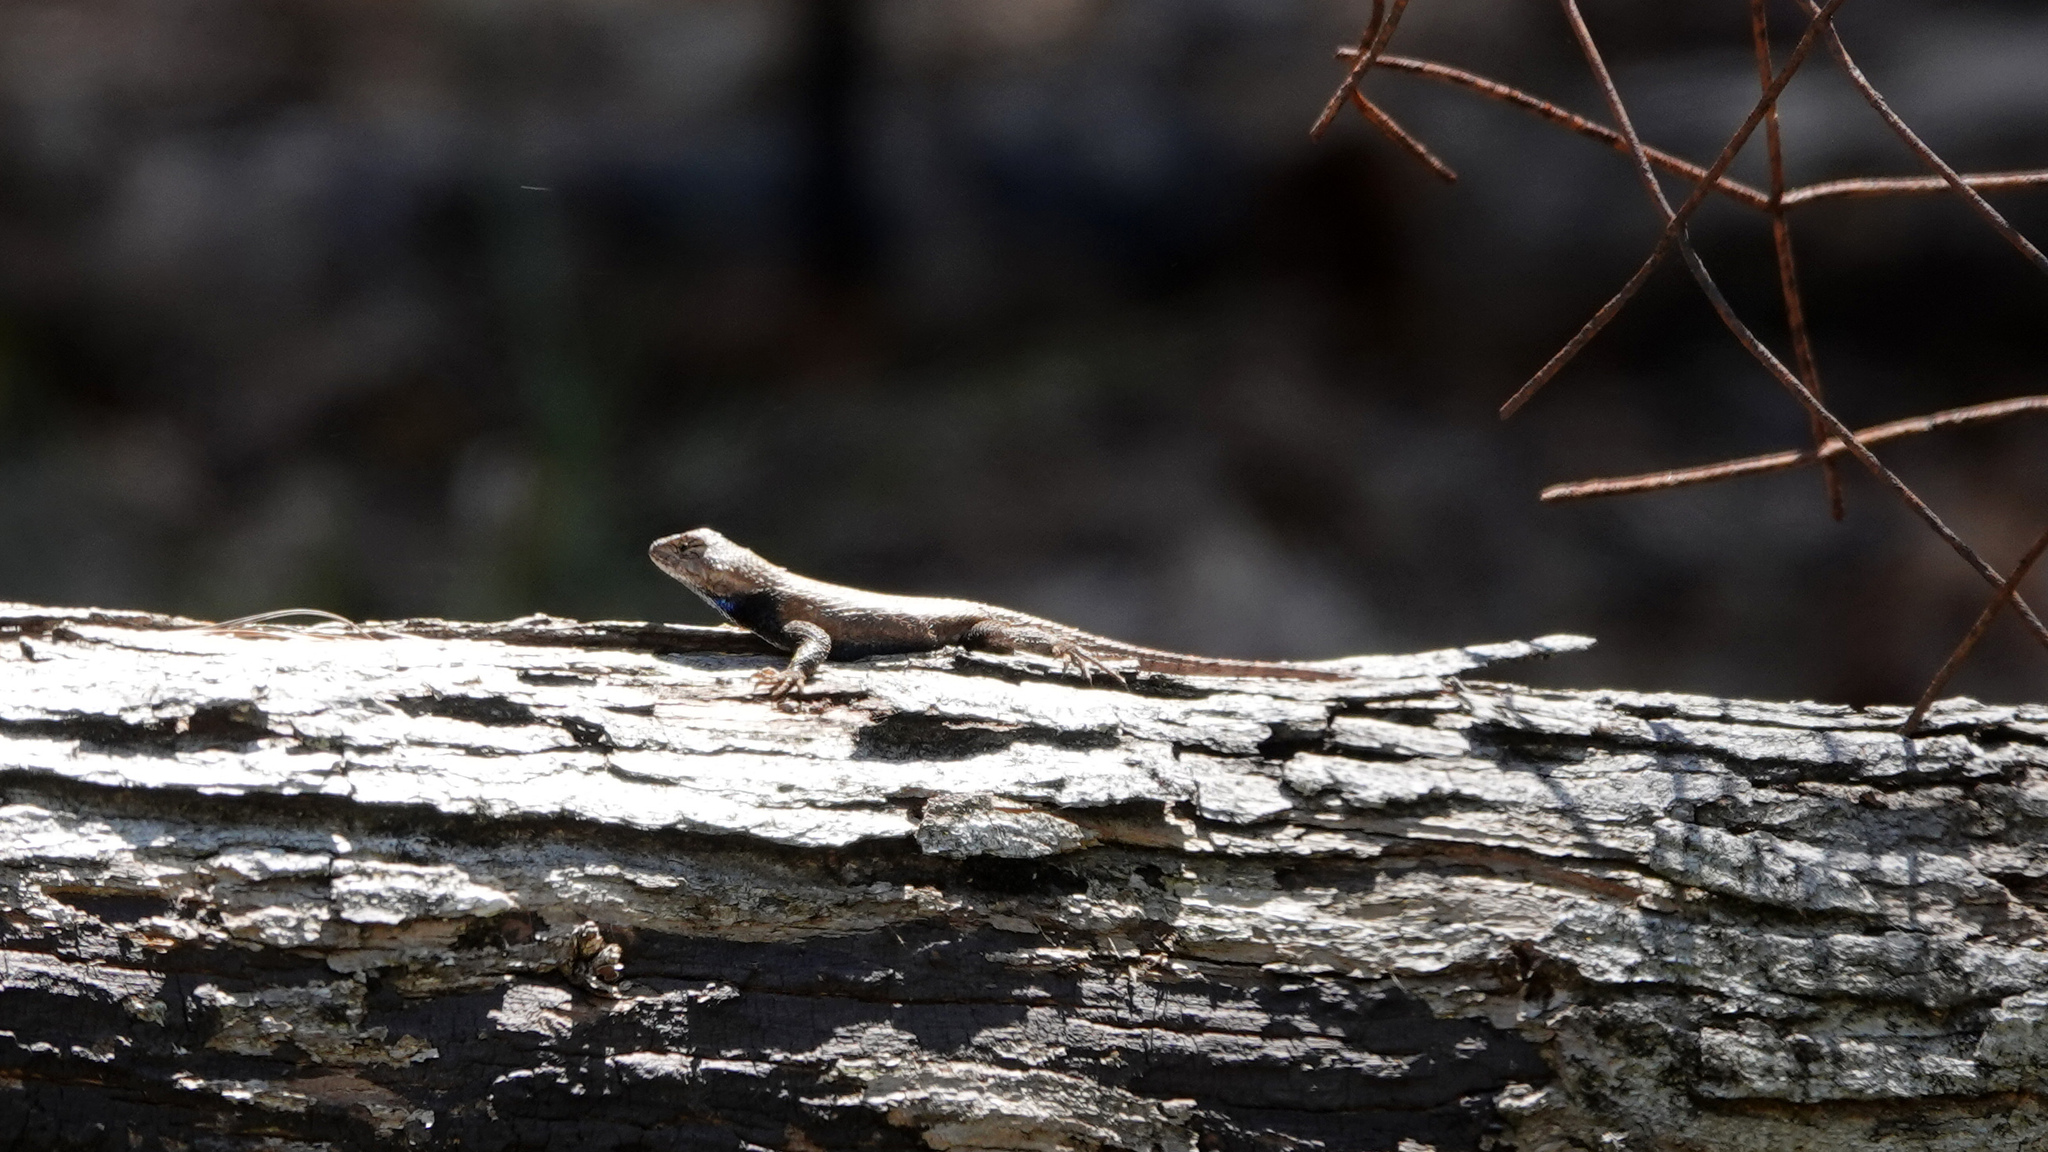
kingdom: Animalia
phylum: Chordata
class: Squamata
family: Phrynosomatidae
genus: Sceloporus
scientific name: Sceloporus undulatus
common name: Eastern fence lizard
